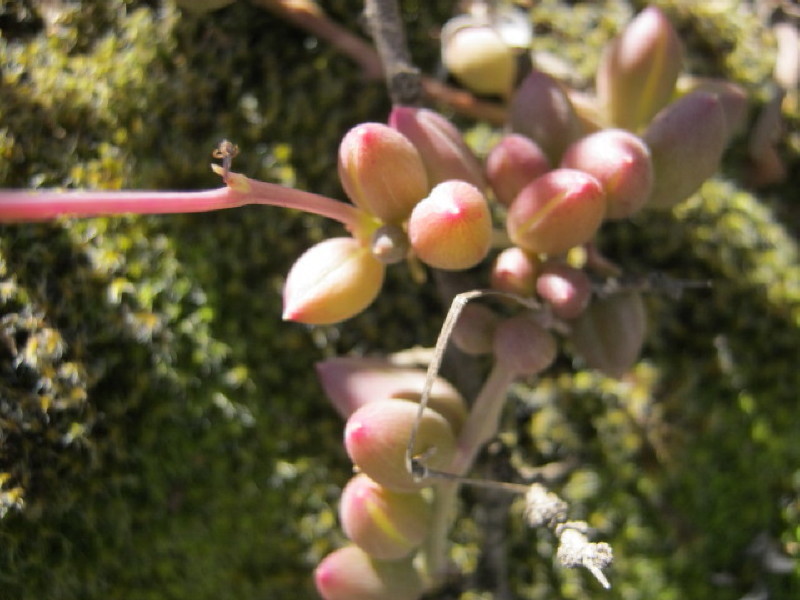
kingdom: Plantae
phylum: Tracheophyta
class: Magnoliopsida
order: Asterales
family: Asteraceae
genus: Curio
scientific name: Curio radicans
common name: Creeping-berry
